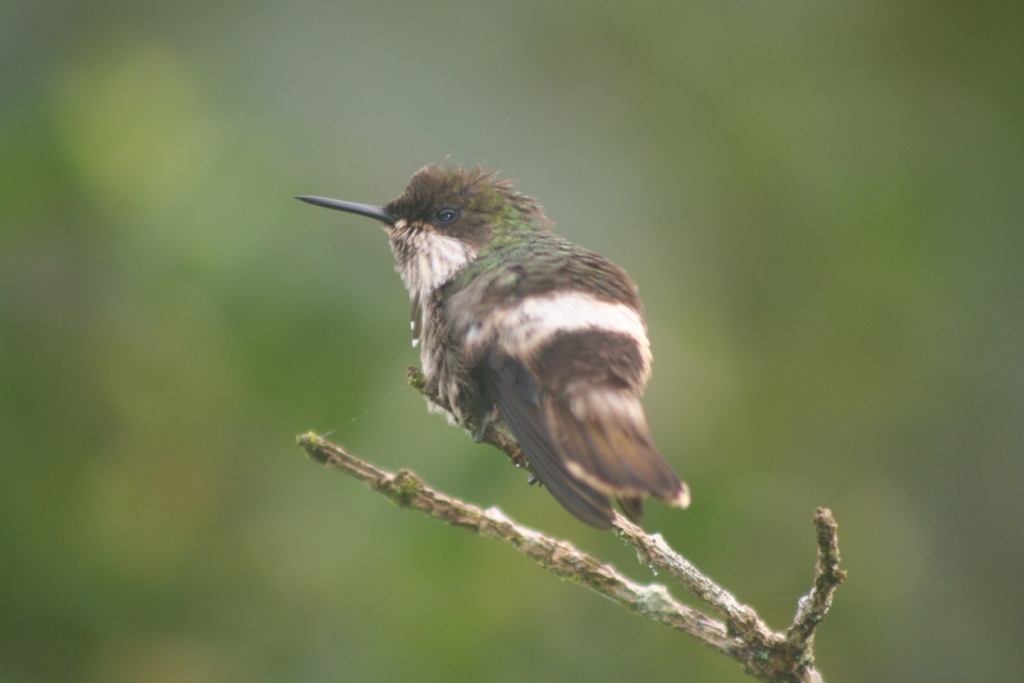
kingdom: Animalia
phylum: Chordata
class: Aves
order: Apodiformes
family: Trochilidae
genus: Lophornis
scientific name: Lophornis chalybeus
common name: Festive coquette
